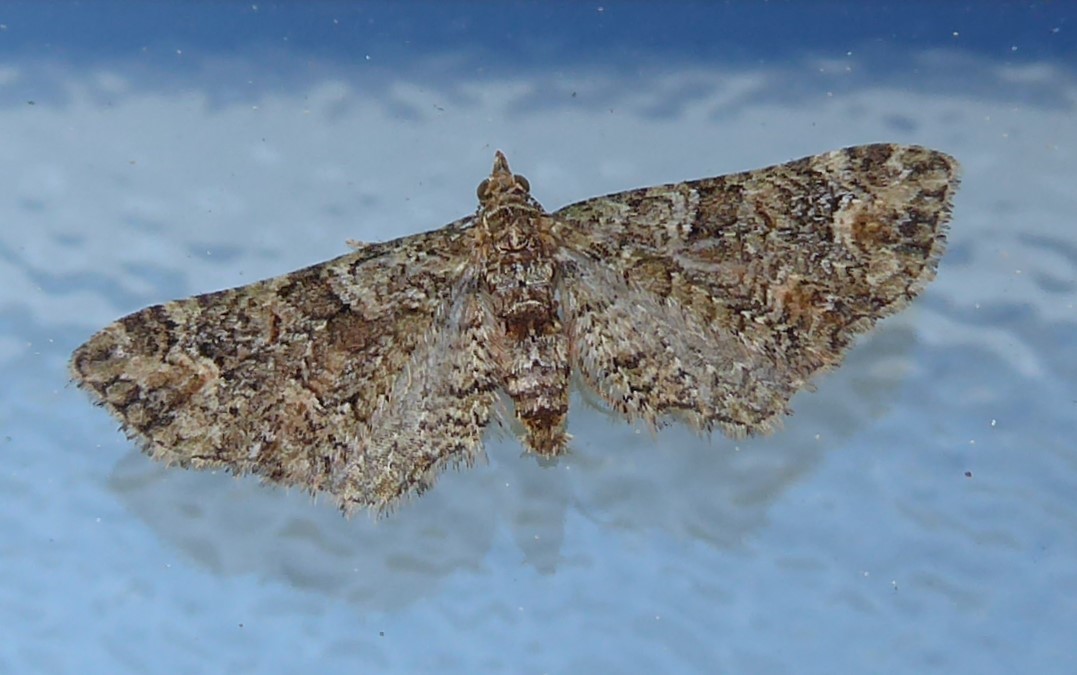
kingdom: Animalia
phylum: Arthropoda
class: Insecta
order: Lepidoptera
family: Geometridae
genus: Idaea
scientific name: Idaea mutanda
